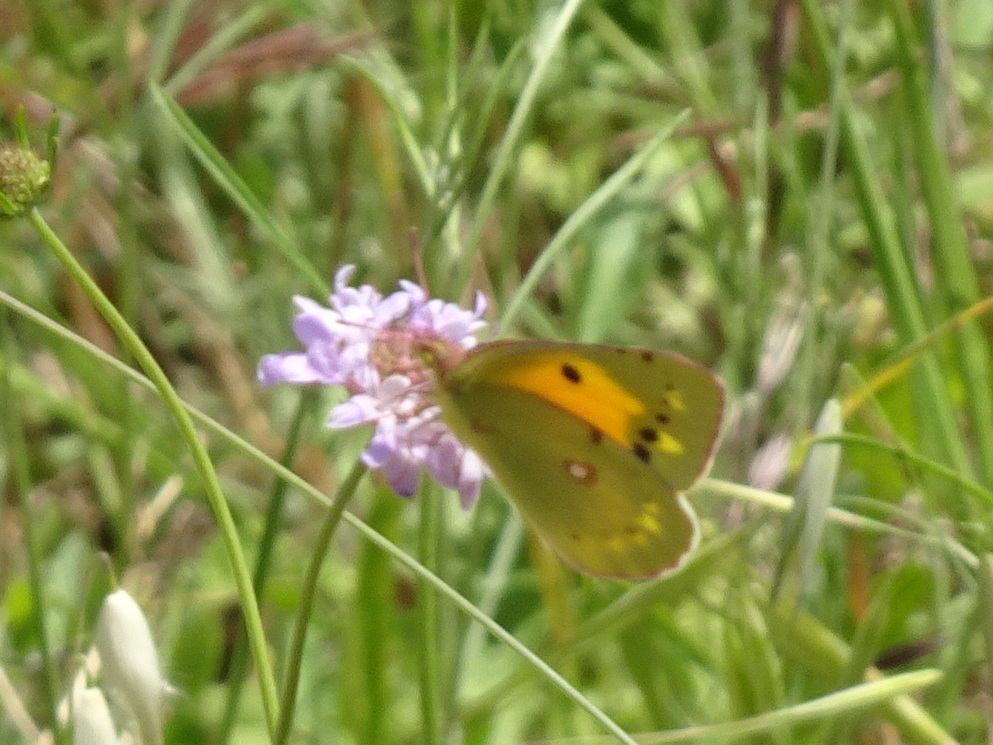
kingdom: Animalia
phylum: Arthropoda
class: Insecta
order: Lepidoptera
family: Pieridae
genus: Colias
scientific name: Colias croceus
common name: Clouded yellow
